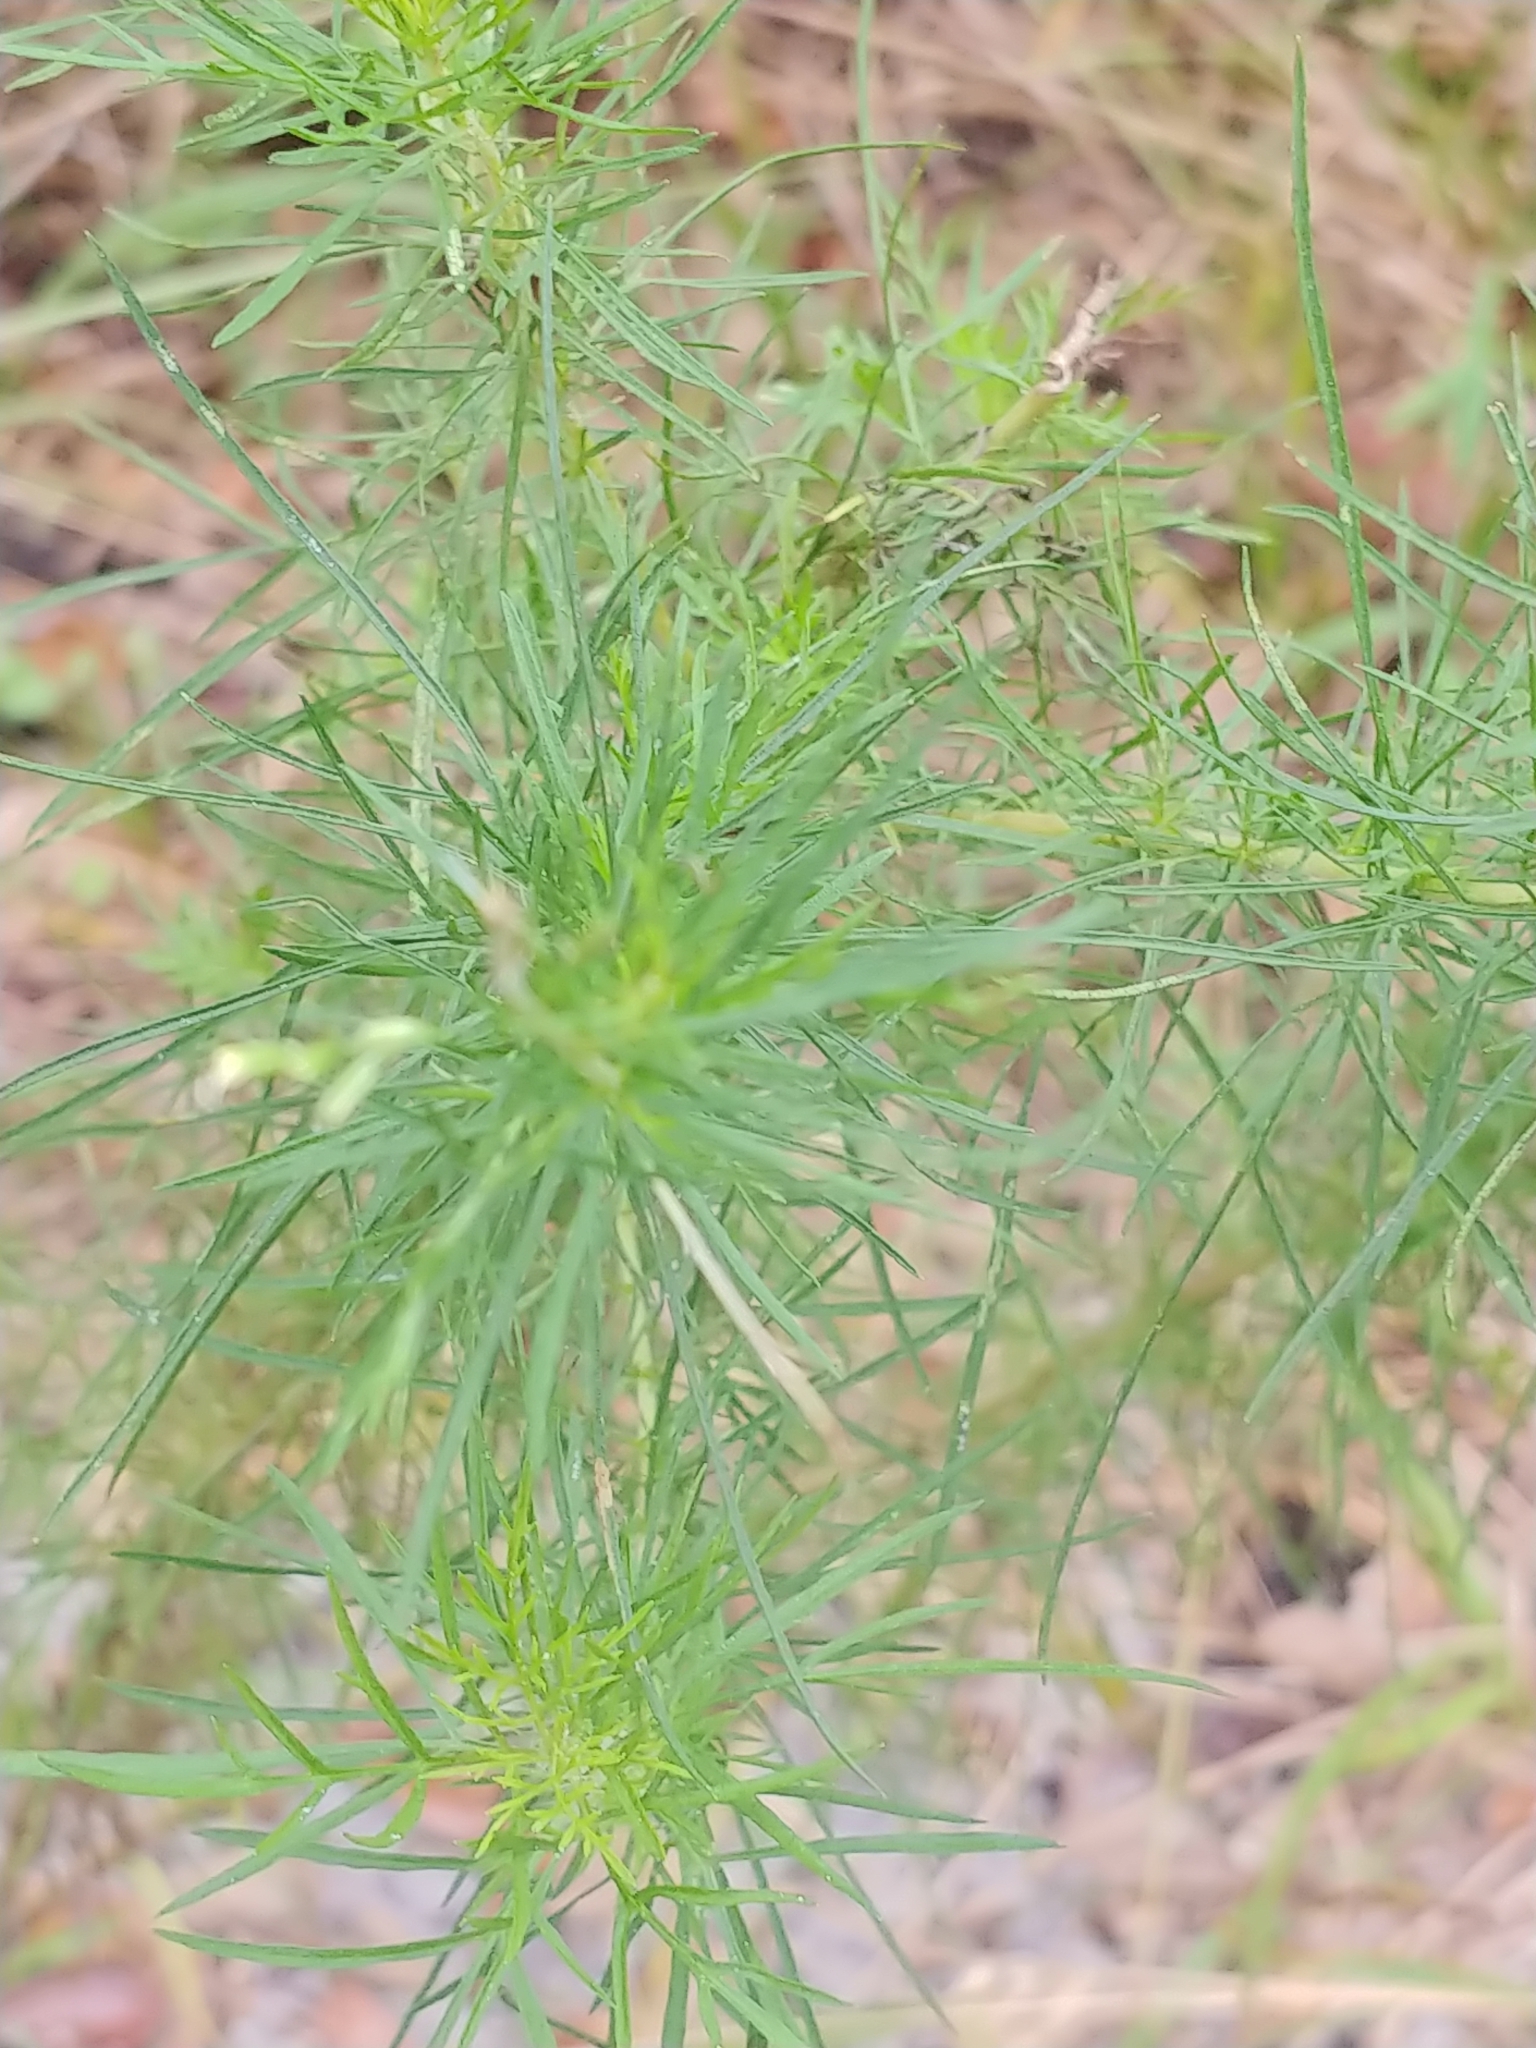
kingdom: Plantae
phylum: Tracheophyta
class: Magnoliopsida
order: Asterales
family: Asteraceae
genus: Eupatorium
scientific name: Eupatorium capillifolium
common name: Dog-fennel
